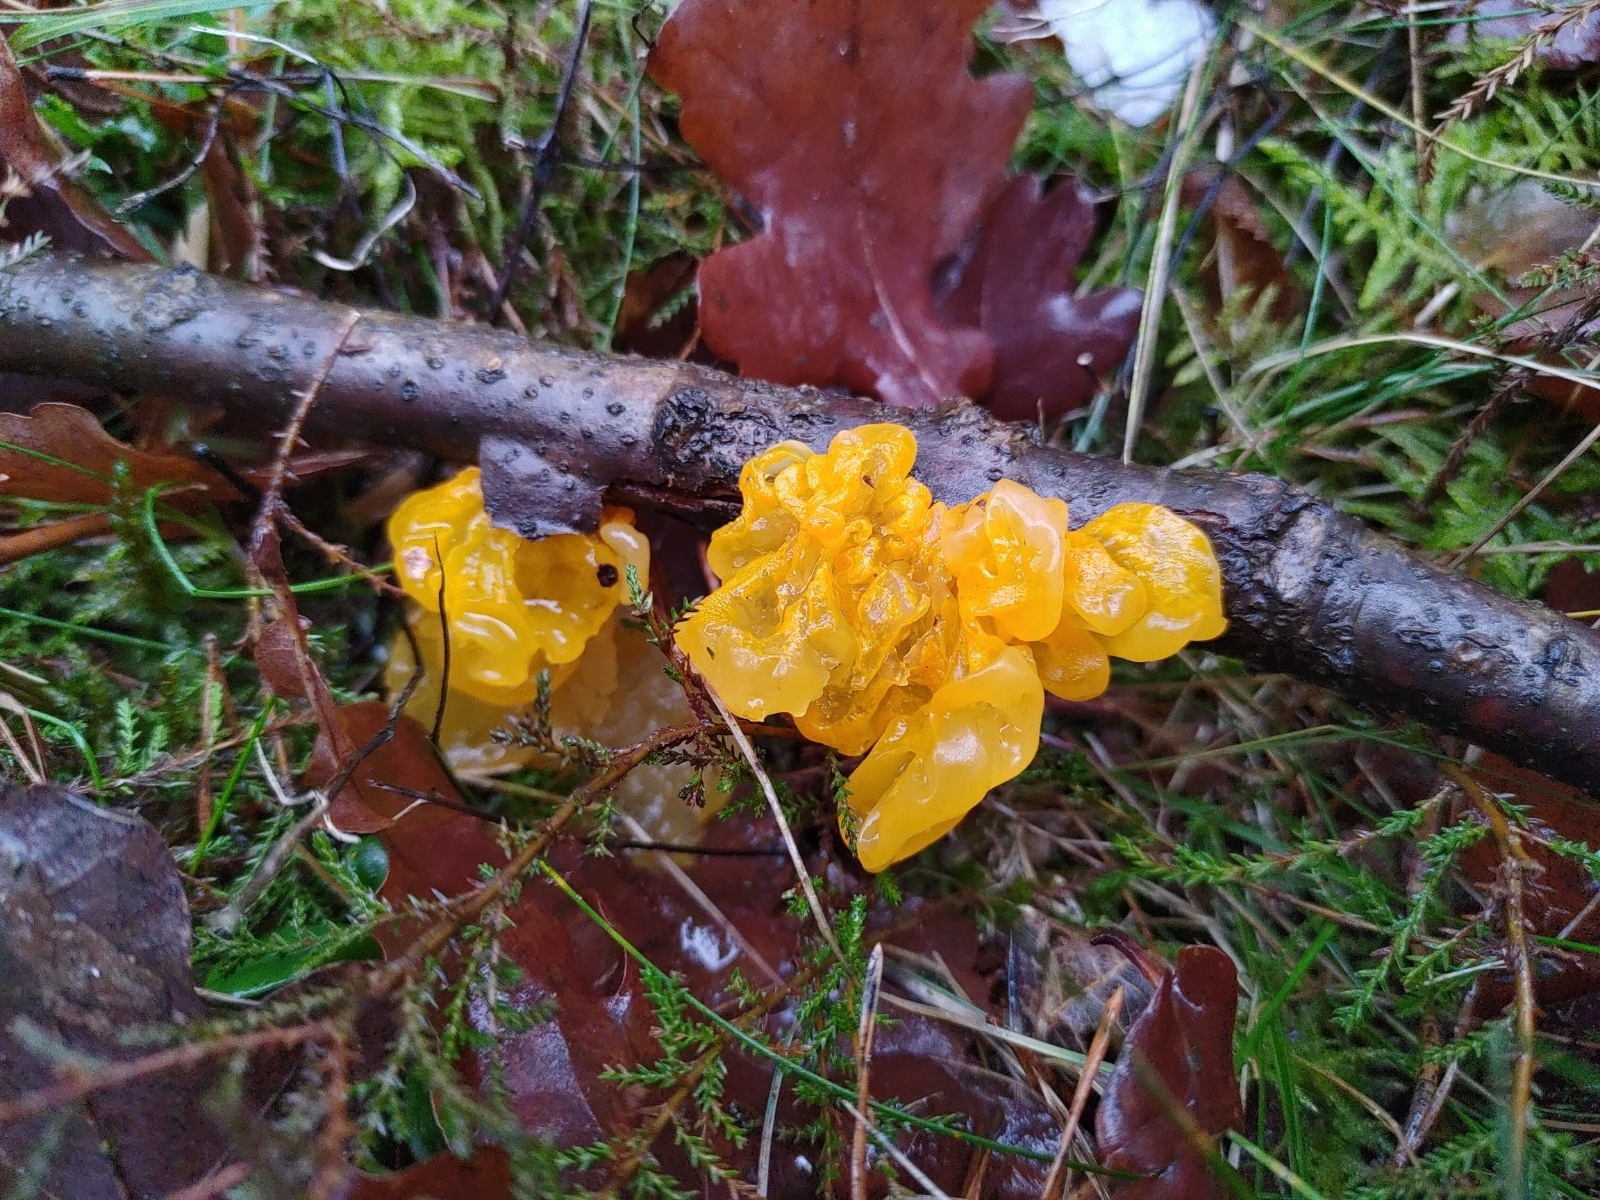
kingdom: Fungi
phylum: Basidiomycota
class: Tremellomycetes
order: Tremellales
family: Tremellaceae
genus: Tremella
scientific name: Tremella mesenterica
